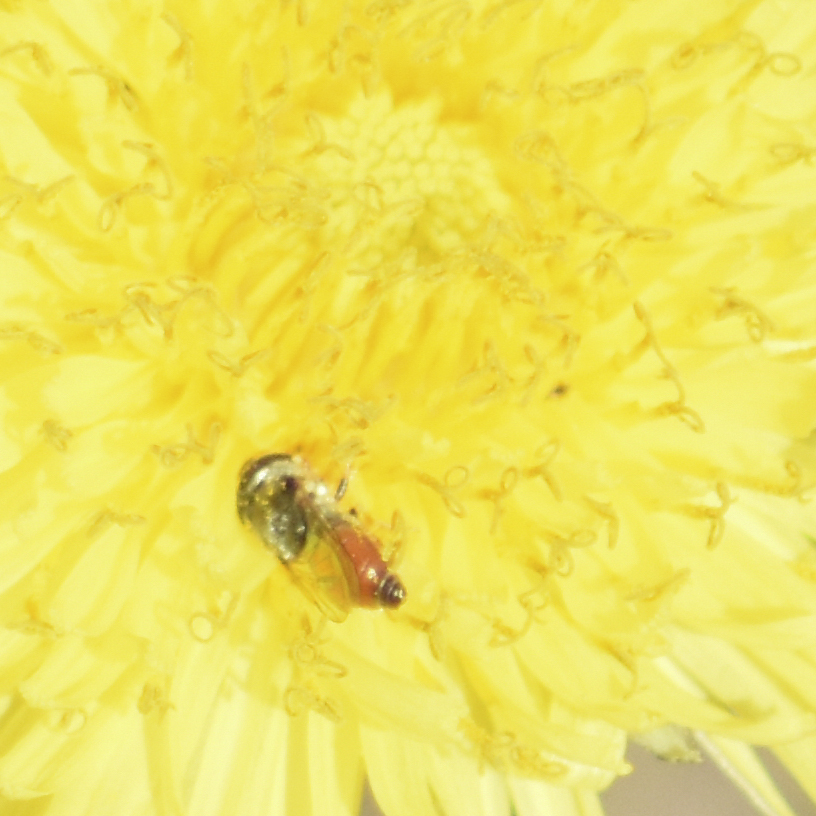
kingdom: Animalia
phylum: Arthropoda
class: Insecta
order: Diptera
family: Syrphidae
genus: Paragus
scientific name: Paragus haemorrhous
